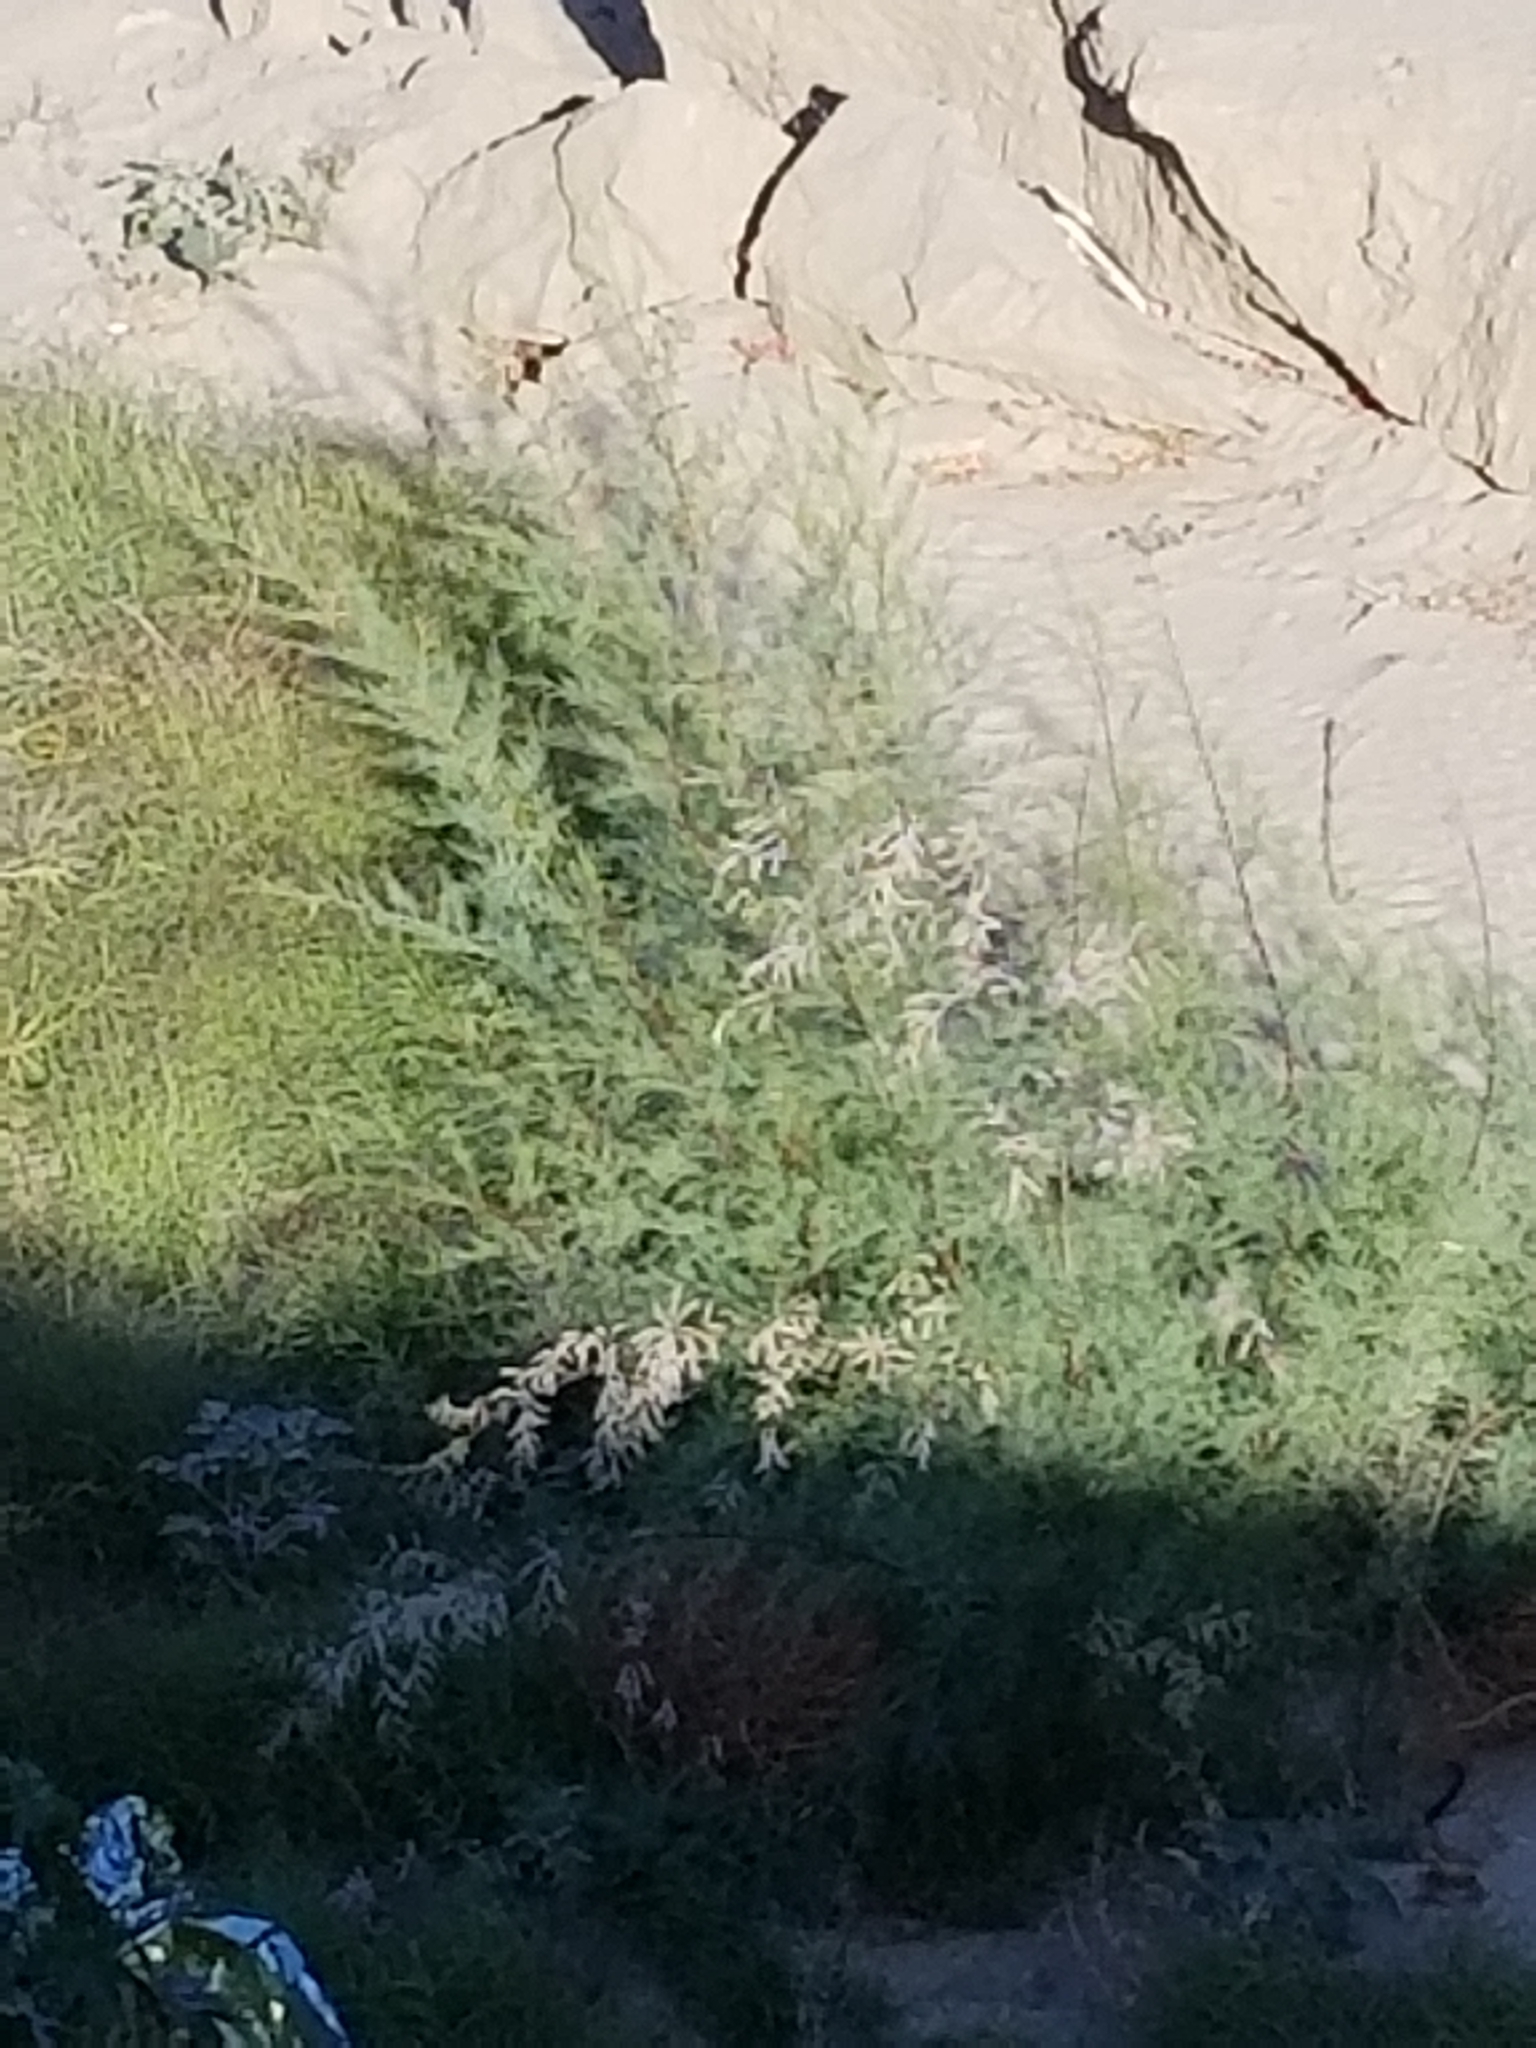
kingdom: Plantae
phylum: Tracheophyta
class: Magnoliopsida
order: Caryophyllales
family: Tamaricaceae
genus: Tamarix
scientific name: Tamarix ramosissima
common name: Pink tamarisk
